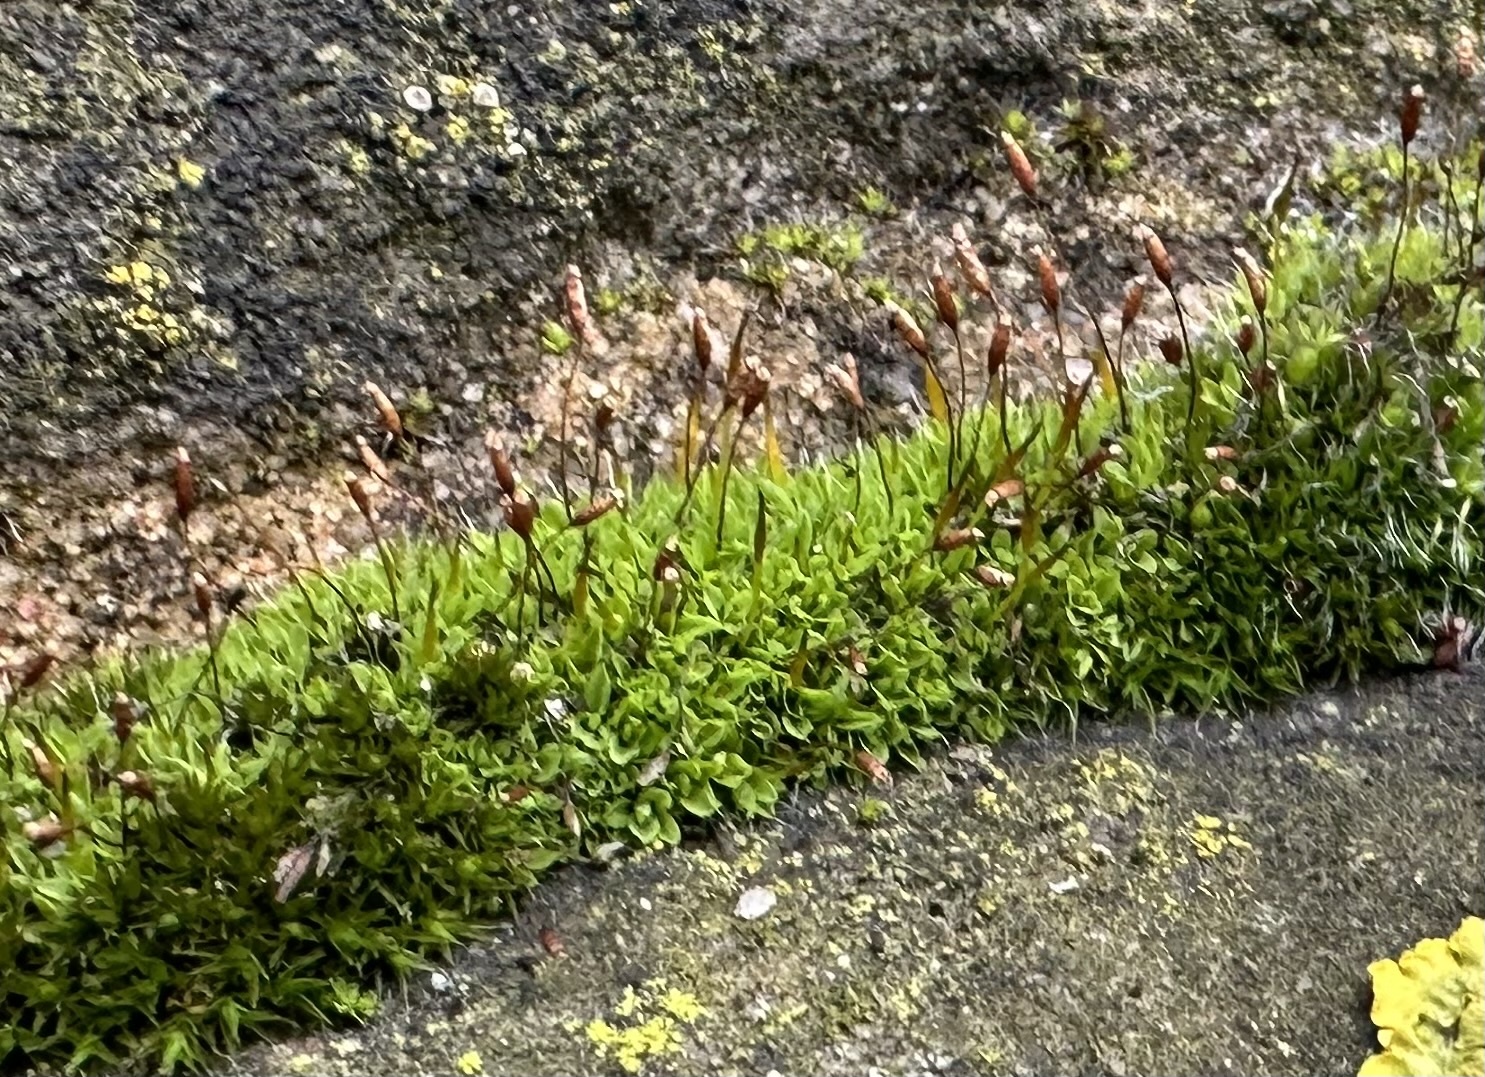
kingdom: Plantae
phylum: Bryophyta
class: Bryopsida
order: Pottiales
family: Pottiaceae
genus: Tortula
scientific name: Tortula muralis
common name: Wall screw-moss
